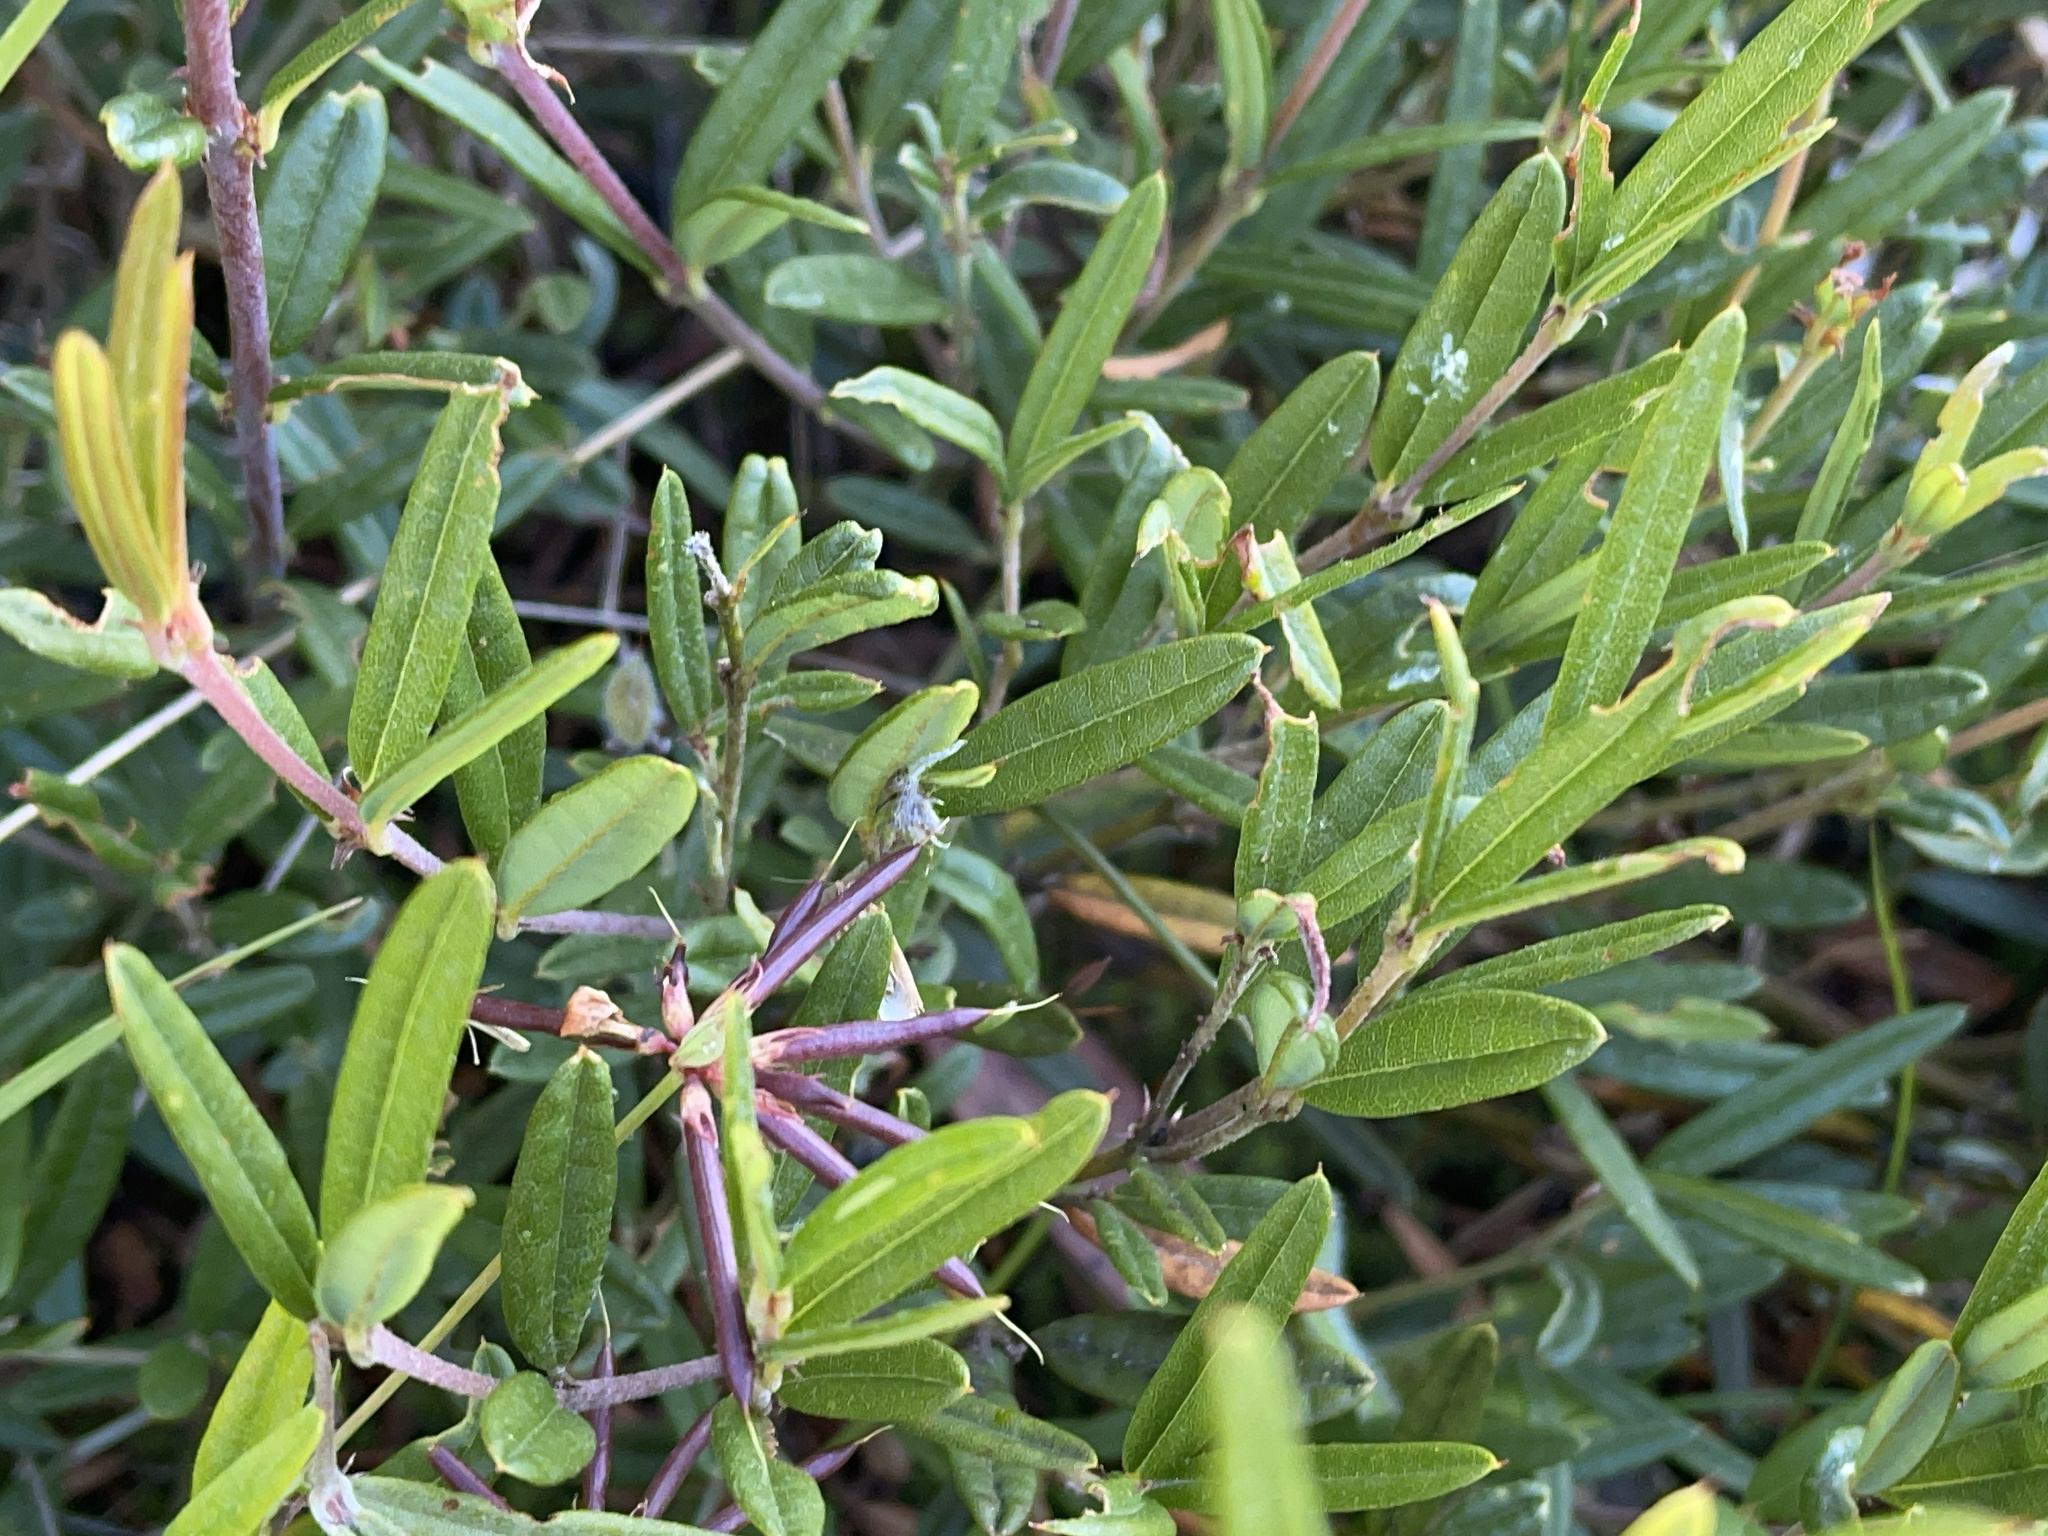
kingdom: Plantae
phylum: Tracheophyta
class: Magnoliopsida
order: Fabales
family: Fabaceae
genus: Podolobium
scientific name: Podolobium alpestre
